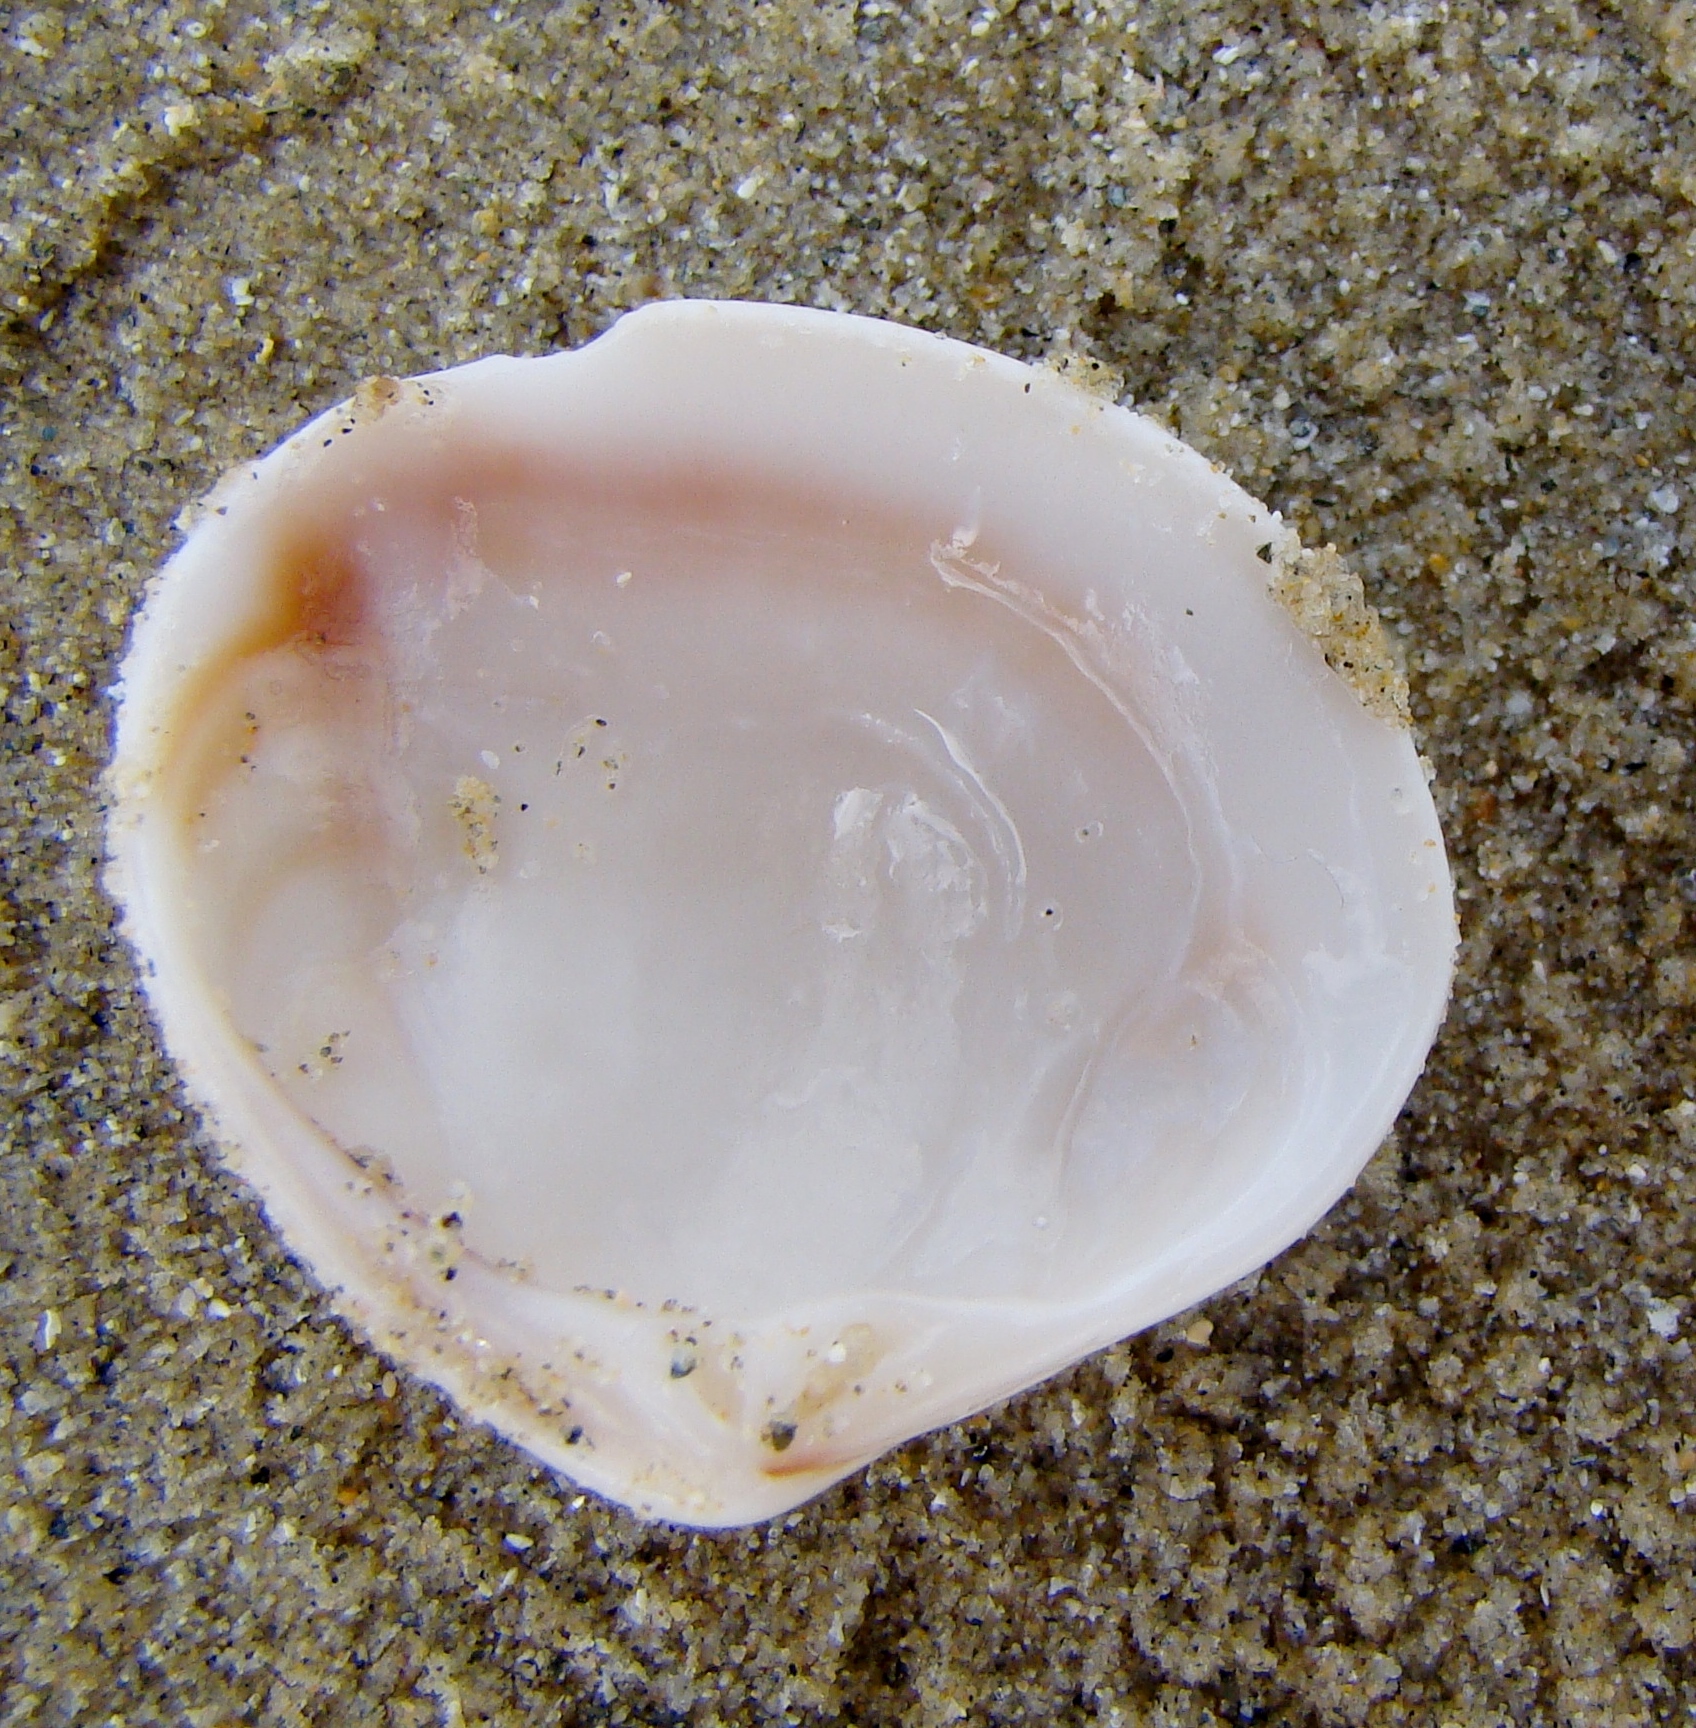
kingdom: Animalia
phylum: Mollusca
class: Bivalvia
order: Venerida
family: Veneridae
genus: Tawera
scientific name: Tawera spissa
